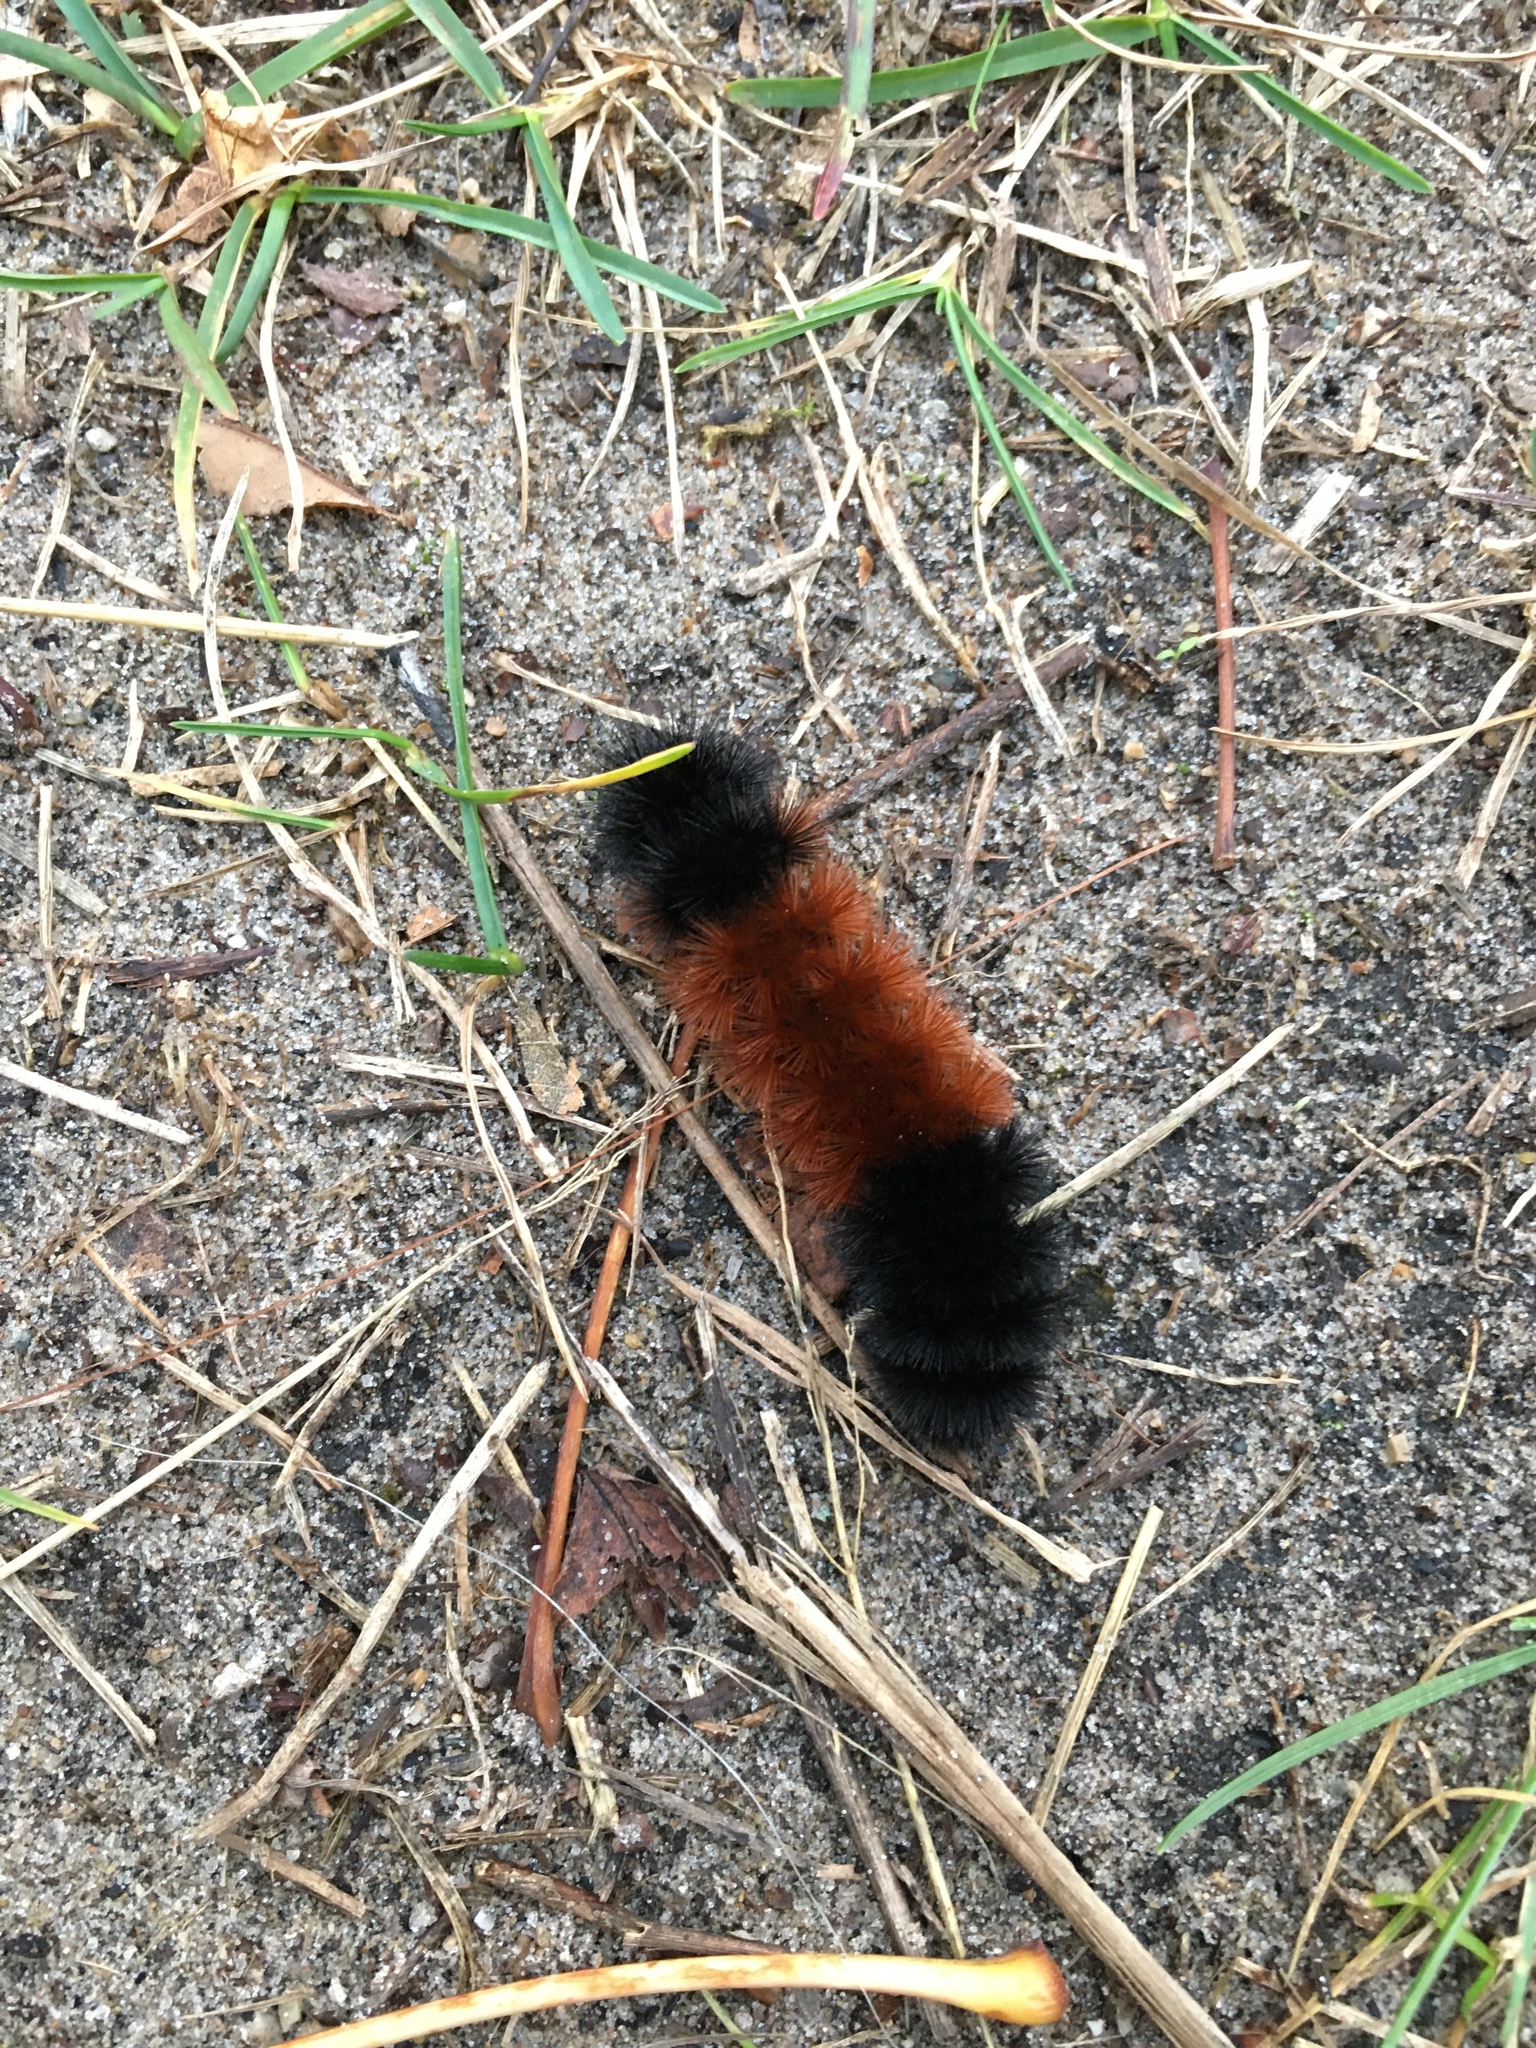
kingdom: Animalia
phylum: Arthropoda
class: Insecta
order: Lepidoptera
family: Erebidae
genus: Pyrrharctia
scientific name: Pyrrharctia isabella
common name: Isabella tiger moth
